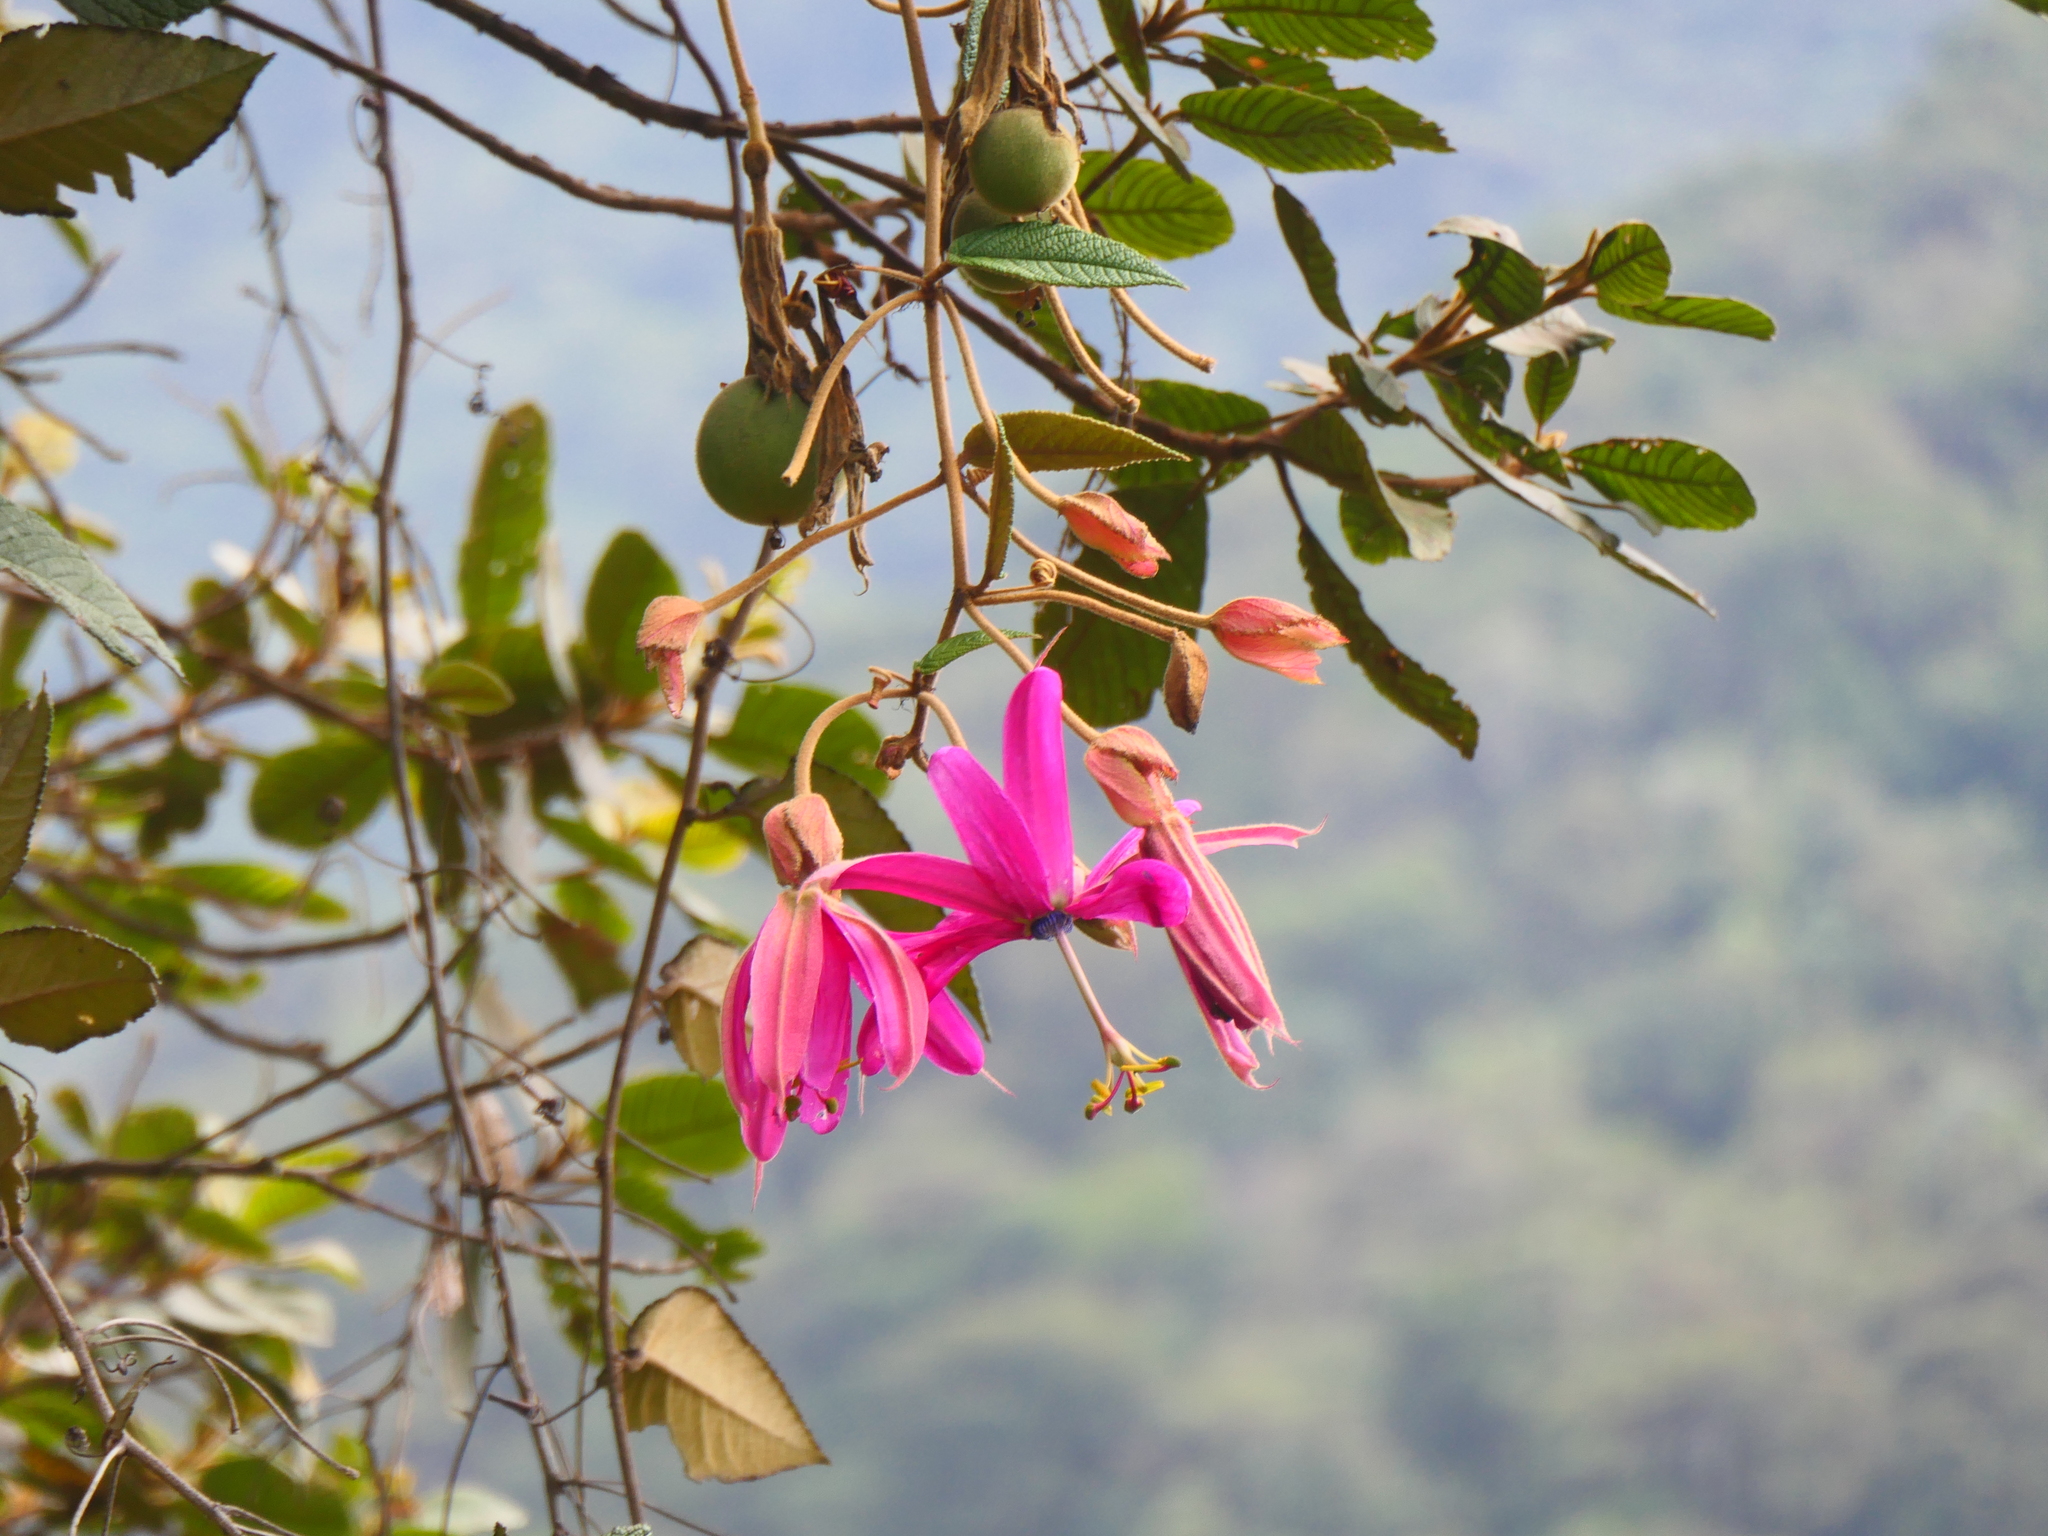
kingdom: Plantae
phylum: Tracheophyta
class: Magnoliopsida
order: Malpighiales
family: Passifloraceae
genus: Passiflora
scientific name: Passiflora insignis
